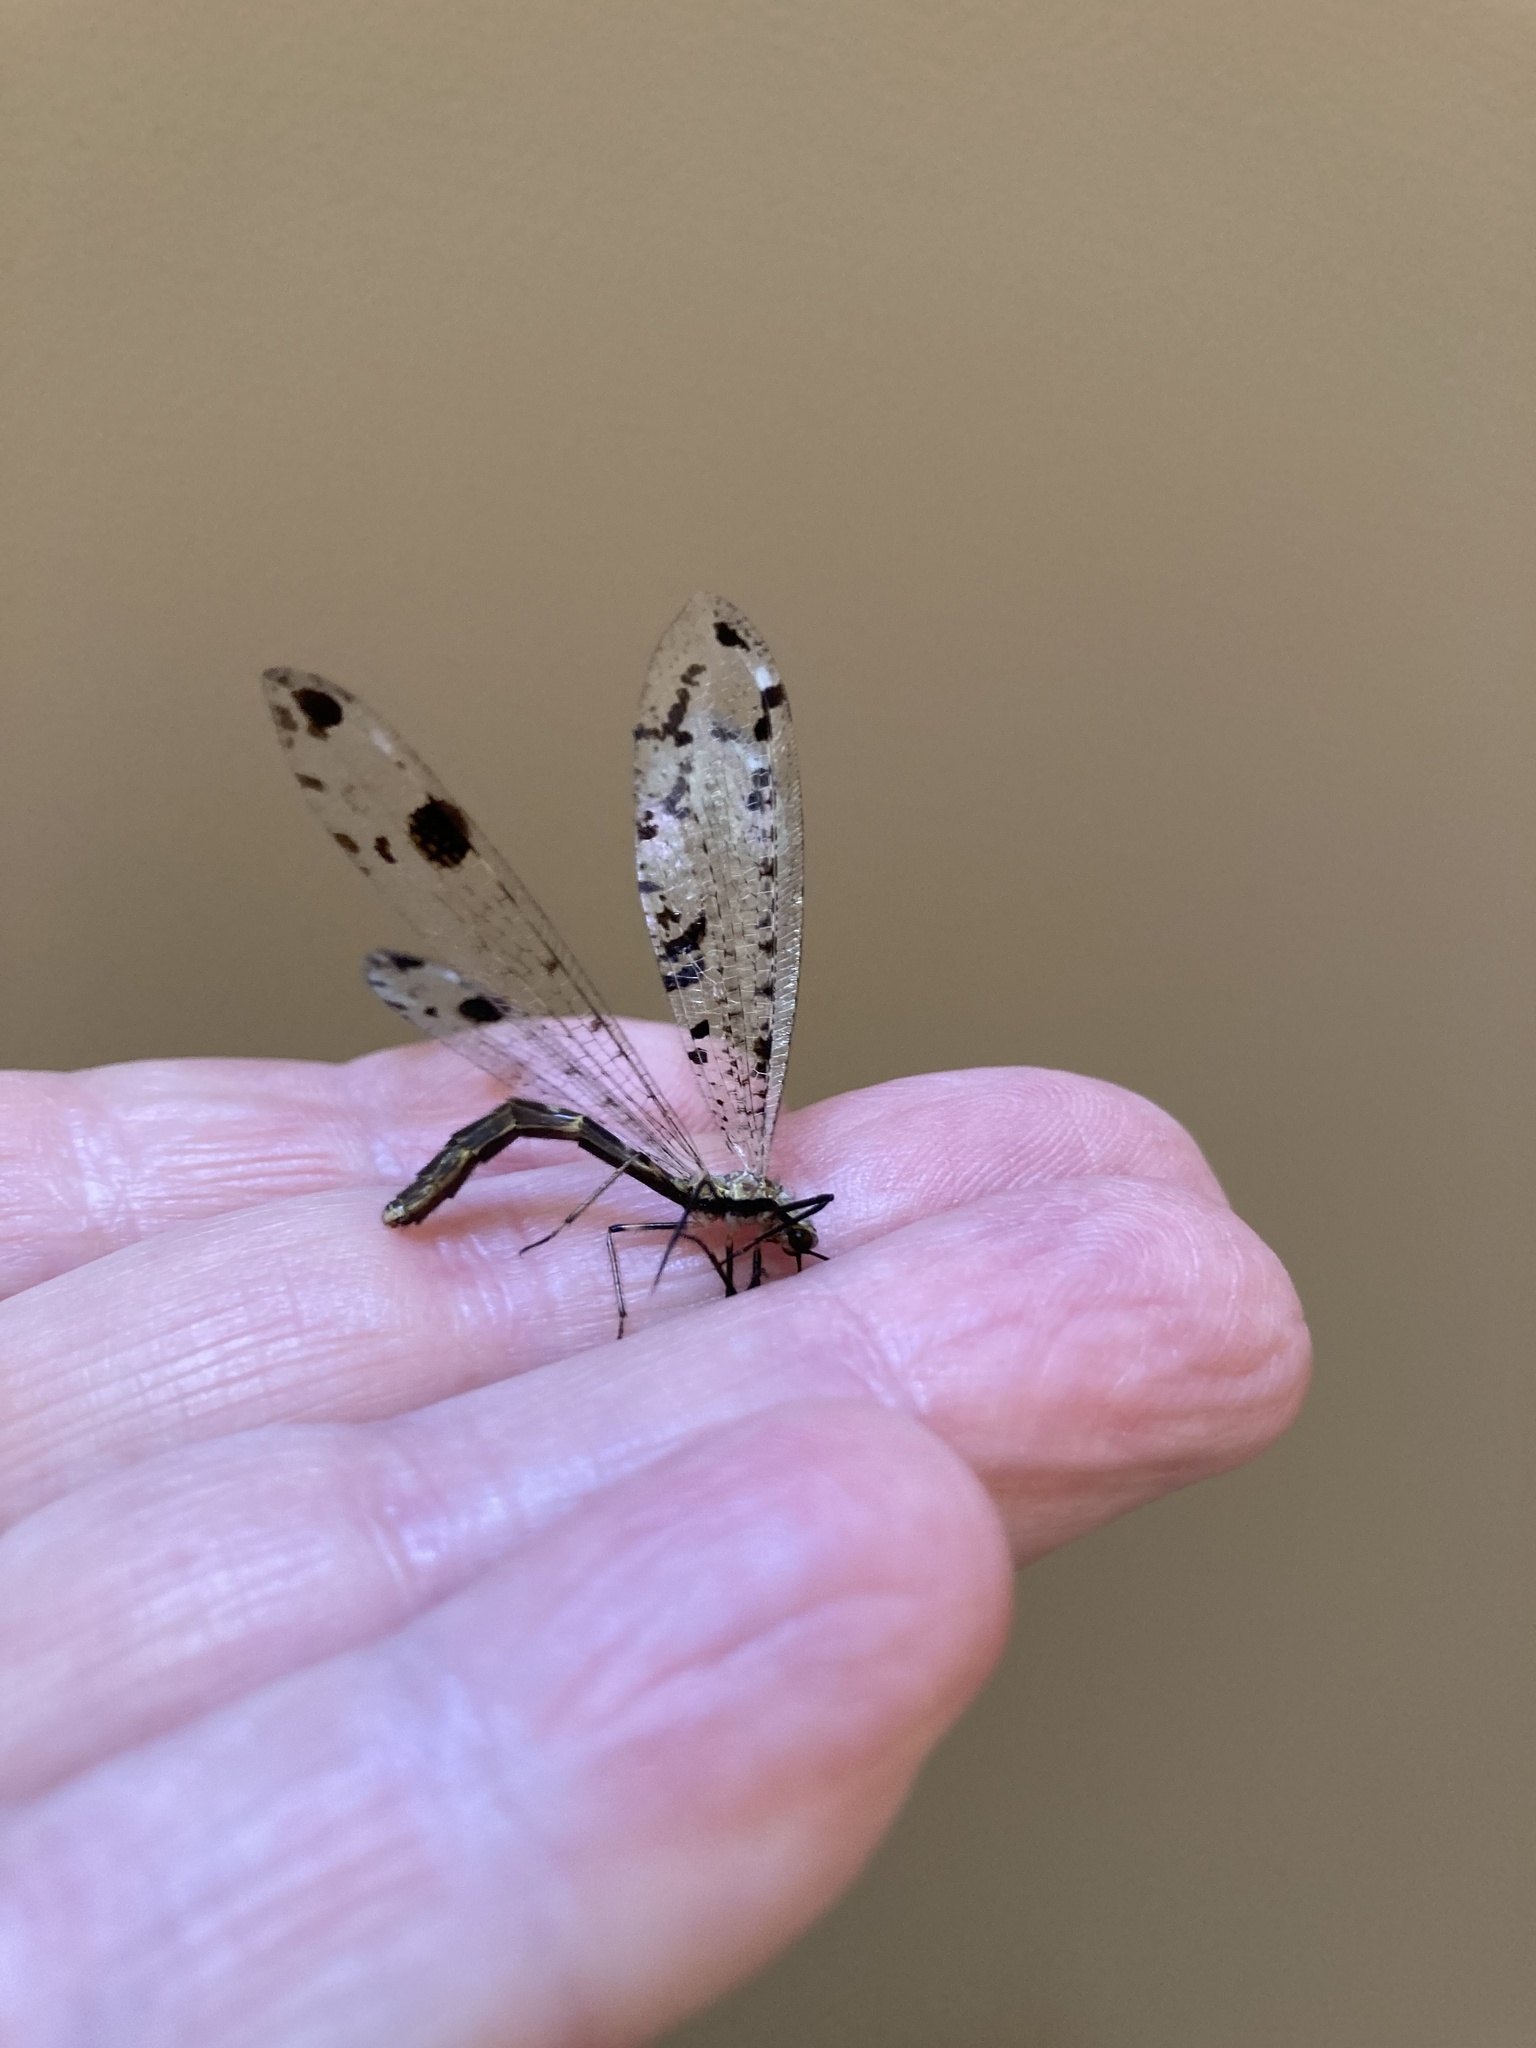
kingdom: Animalia
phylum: Arthropoda
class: Insecta
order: Neuroptera
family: Myrmeleontidae
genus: Dendroleon
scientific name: Dendroleon obsoletus
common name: Eastern spotted-winged antlion
